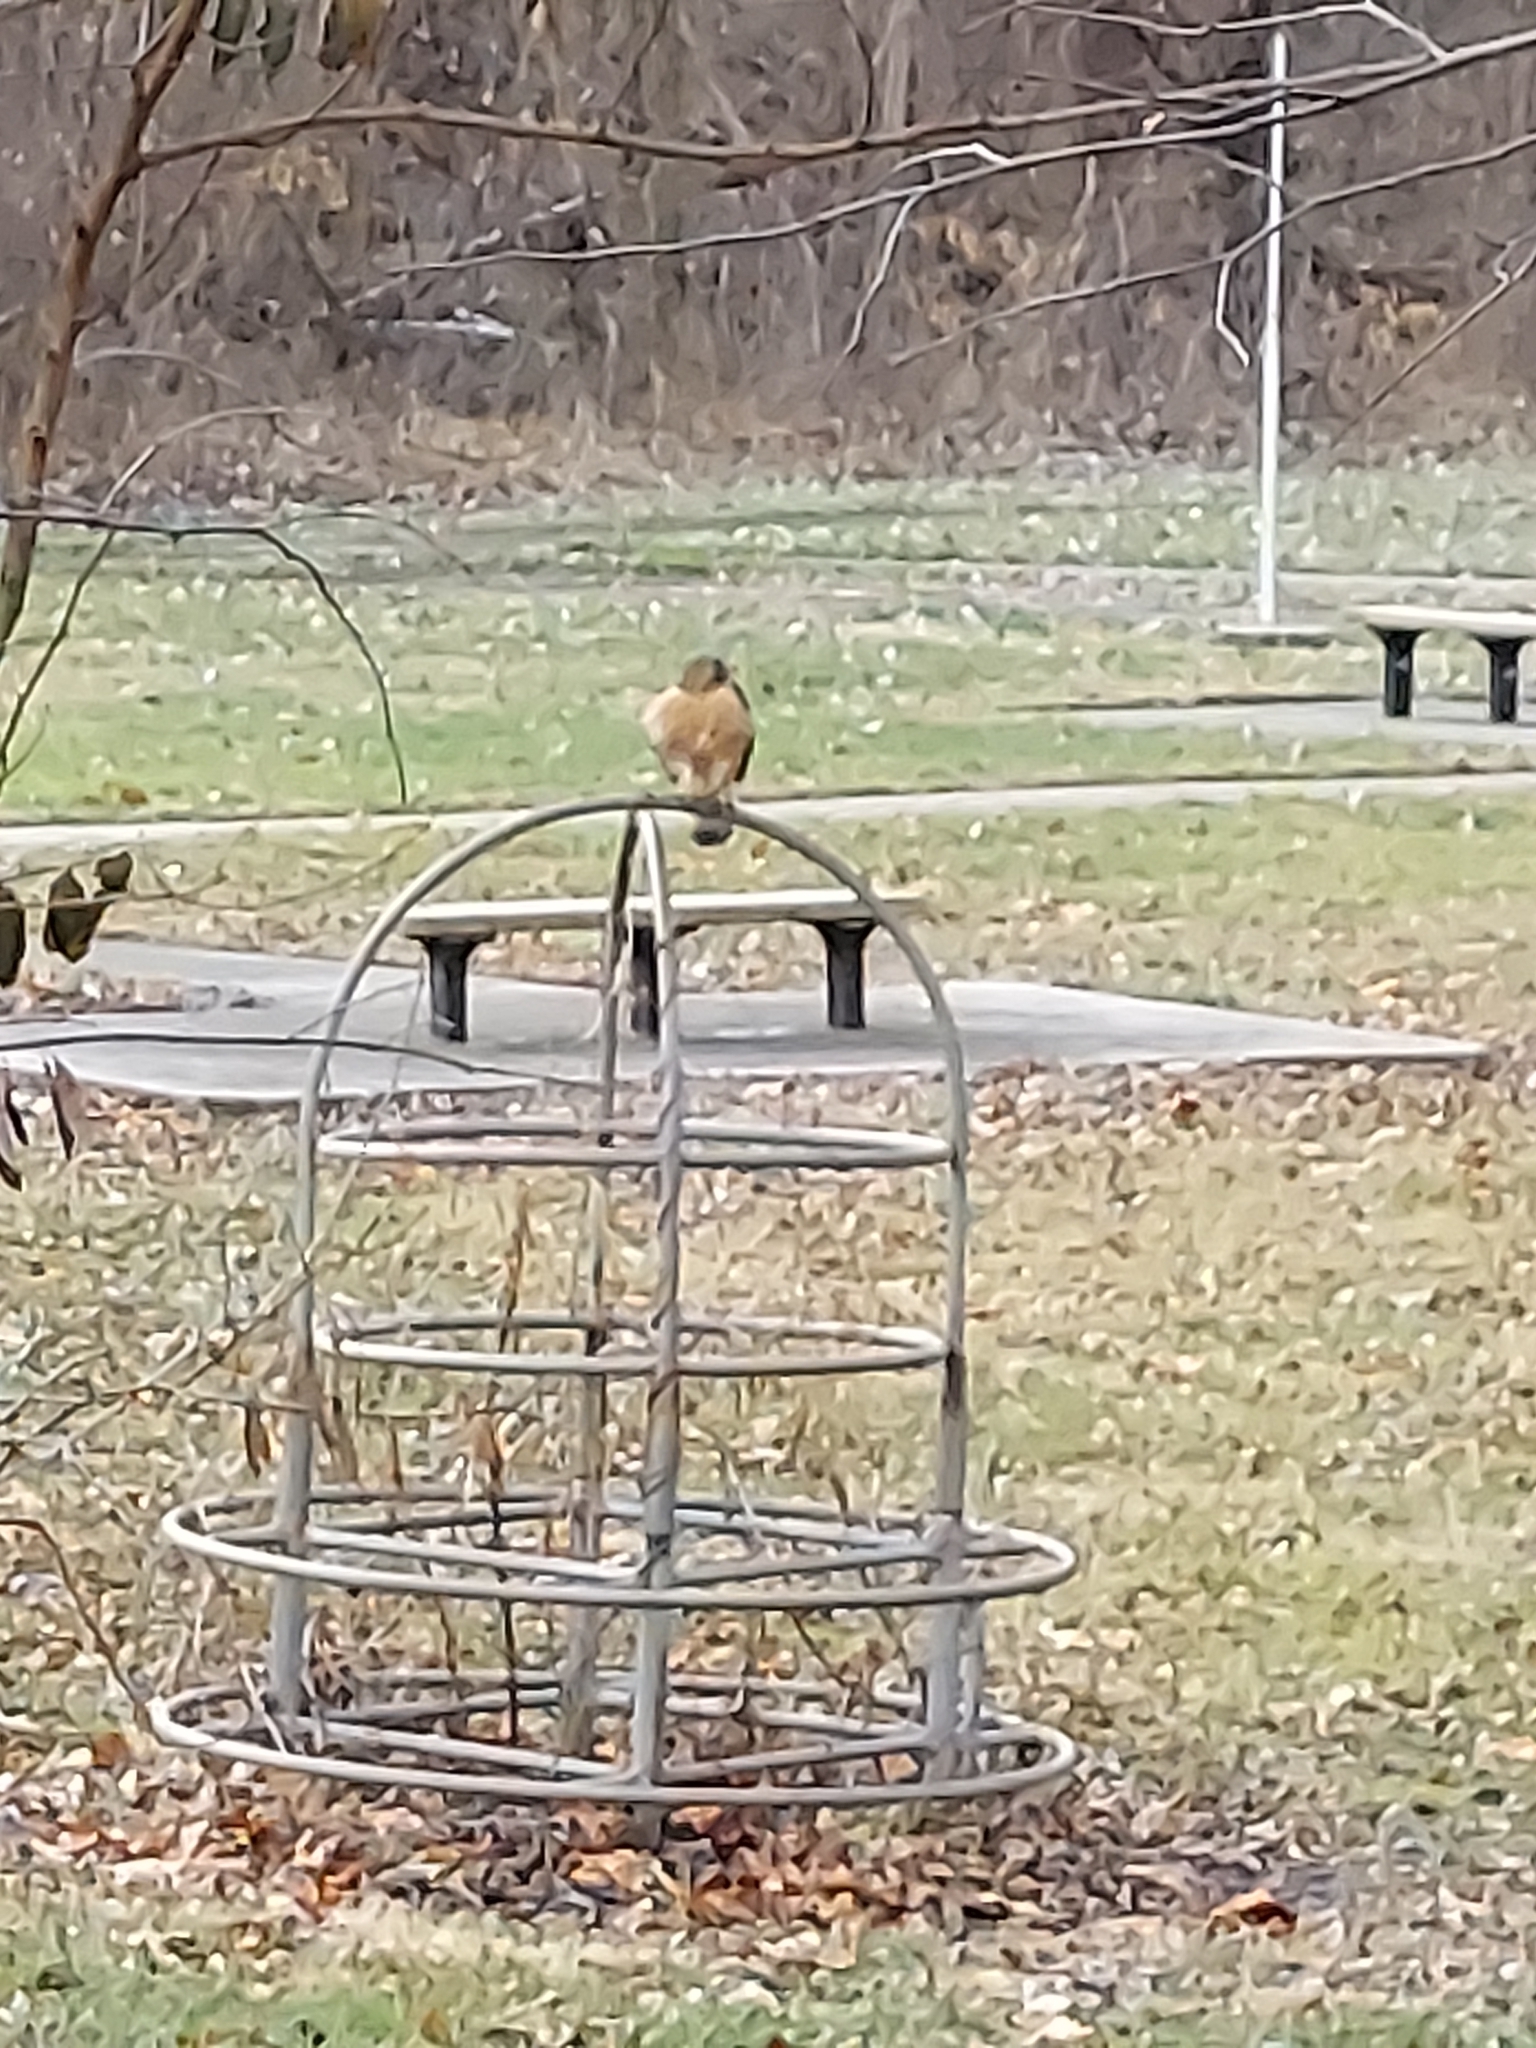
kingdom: Animalia
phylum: Chordata
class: Aves
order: Accipitriformes
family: Accipitridae
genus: Buteo
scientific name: Buteo lineatus
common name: Red-shouldered hawk
